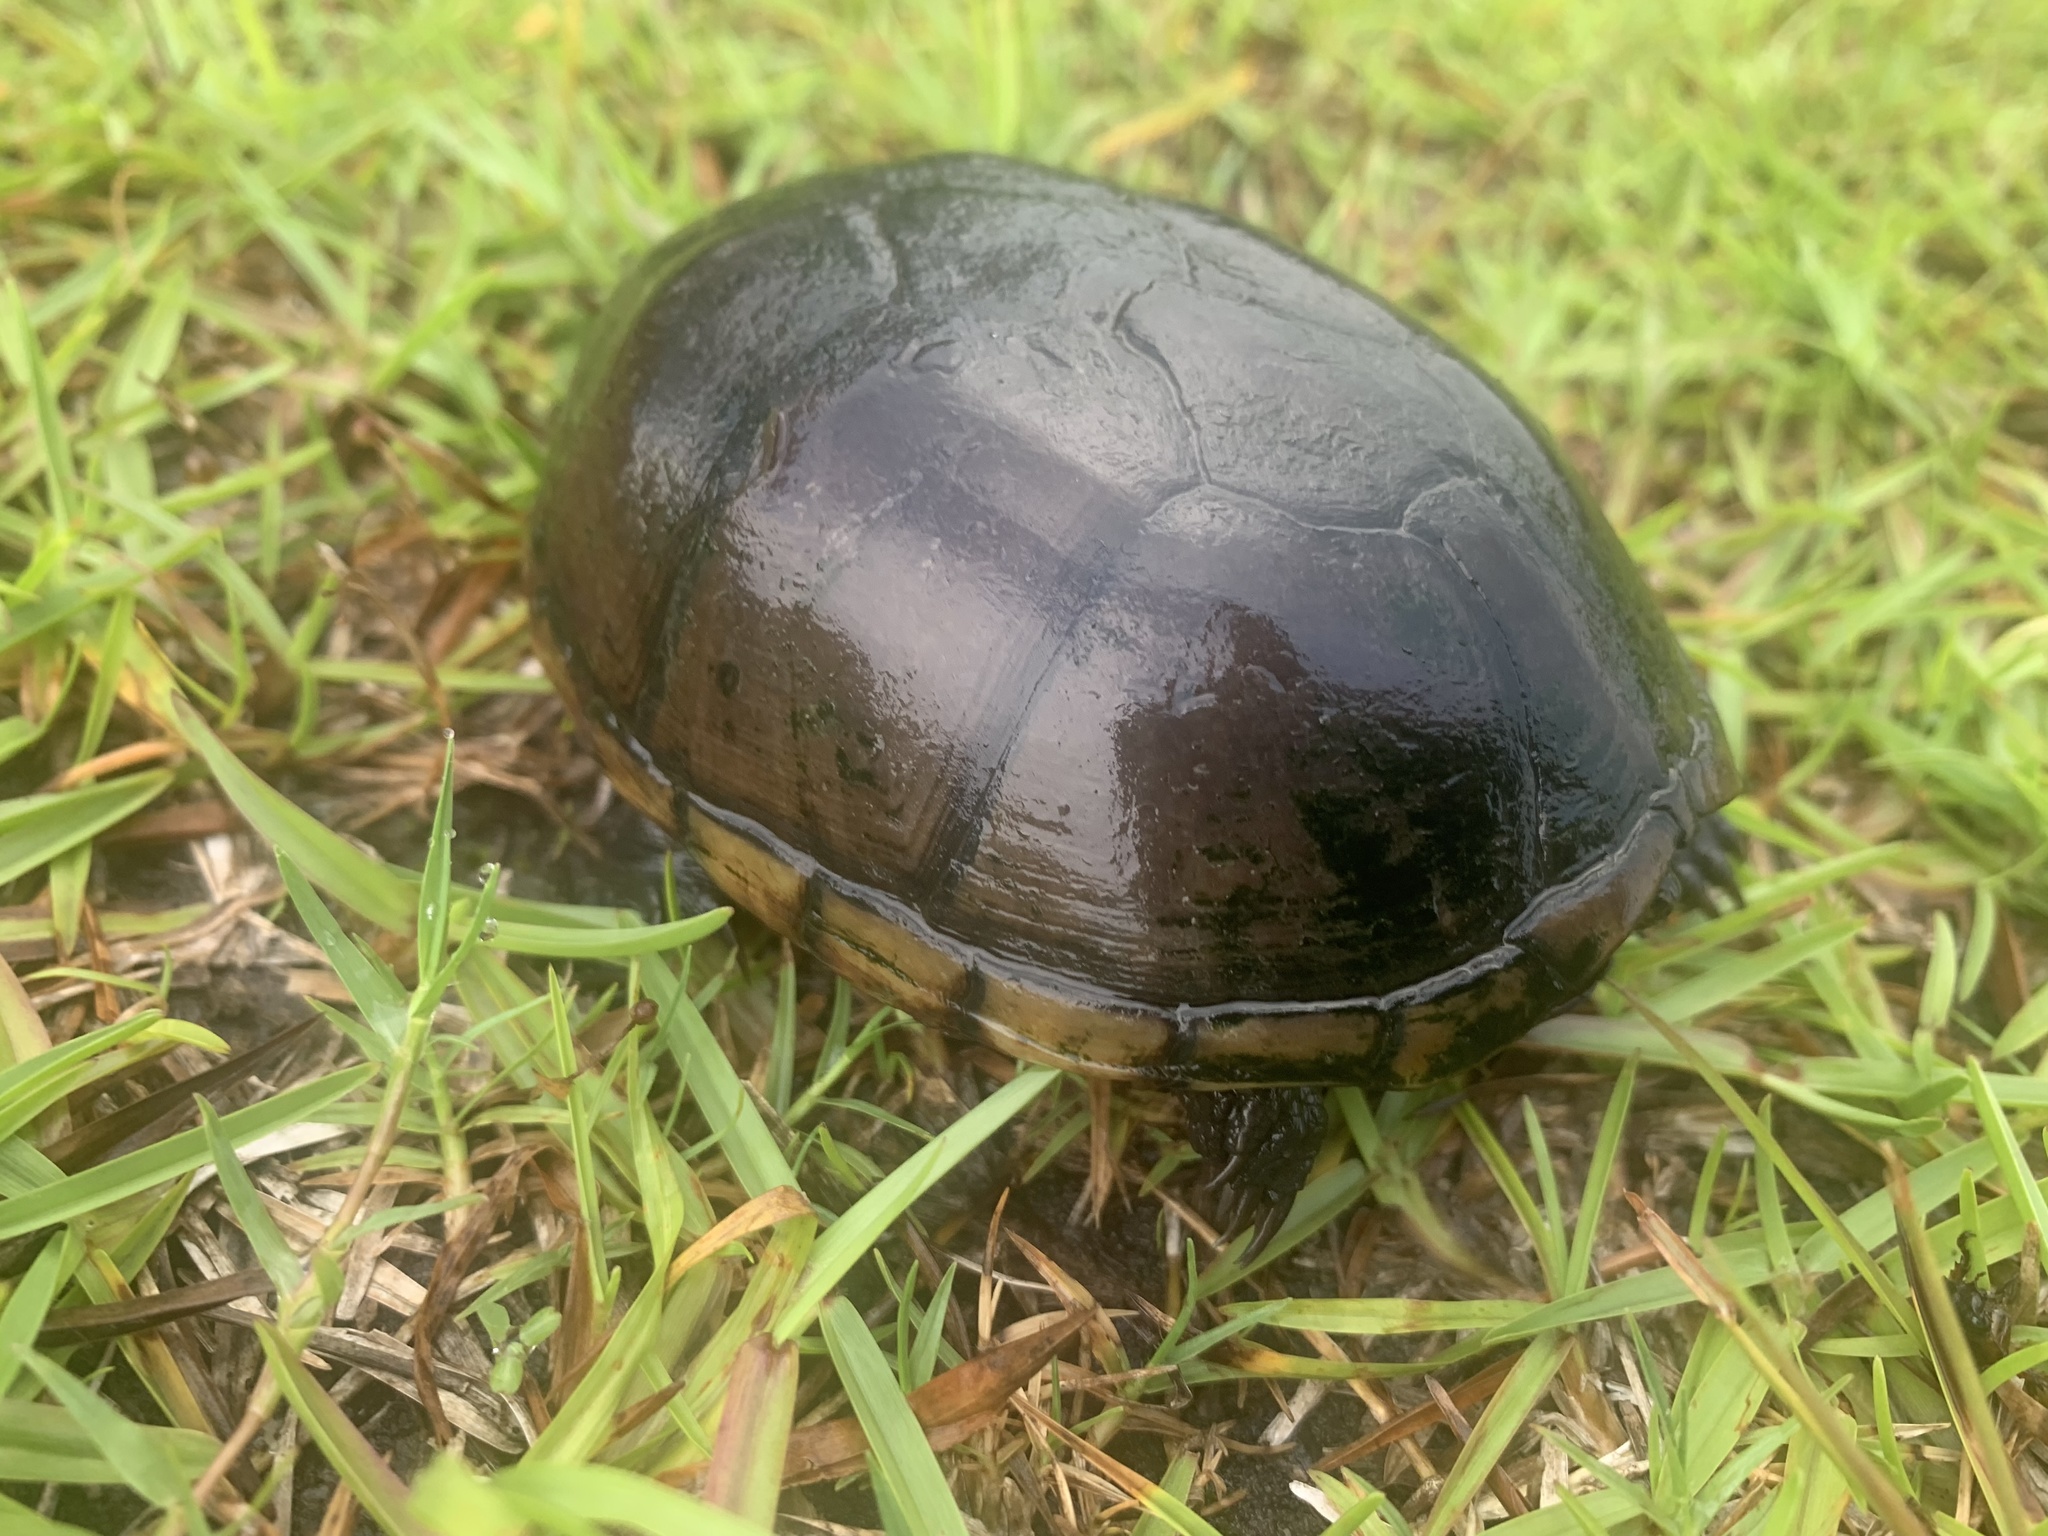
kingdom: Animalia
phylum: Chordata
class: Testudines
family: Kinosternidae
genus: Kinosternon
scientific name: Kinosternon subrubrum
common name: Eastern mud turtle
